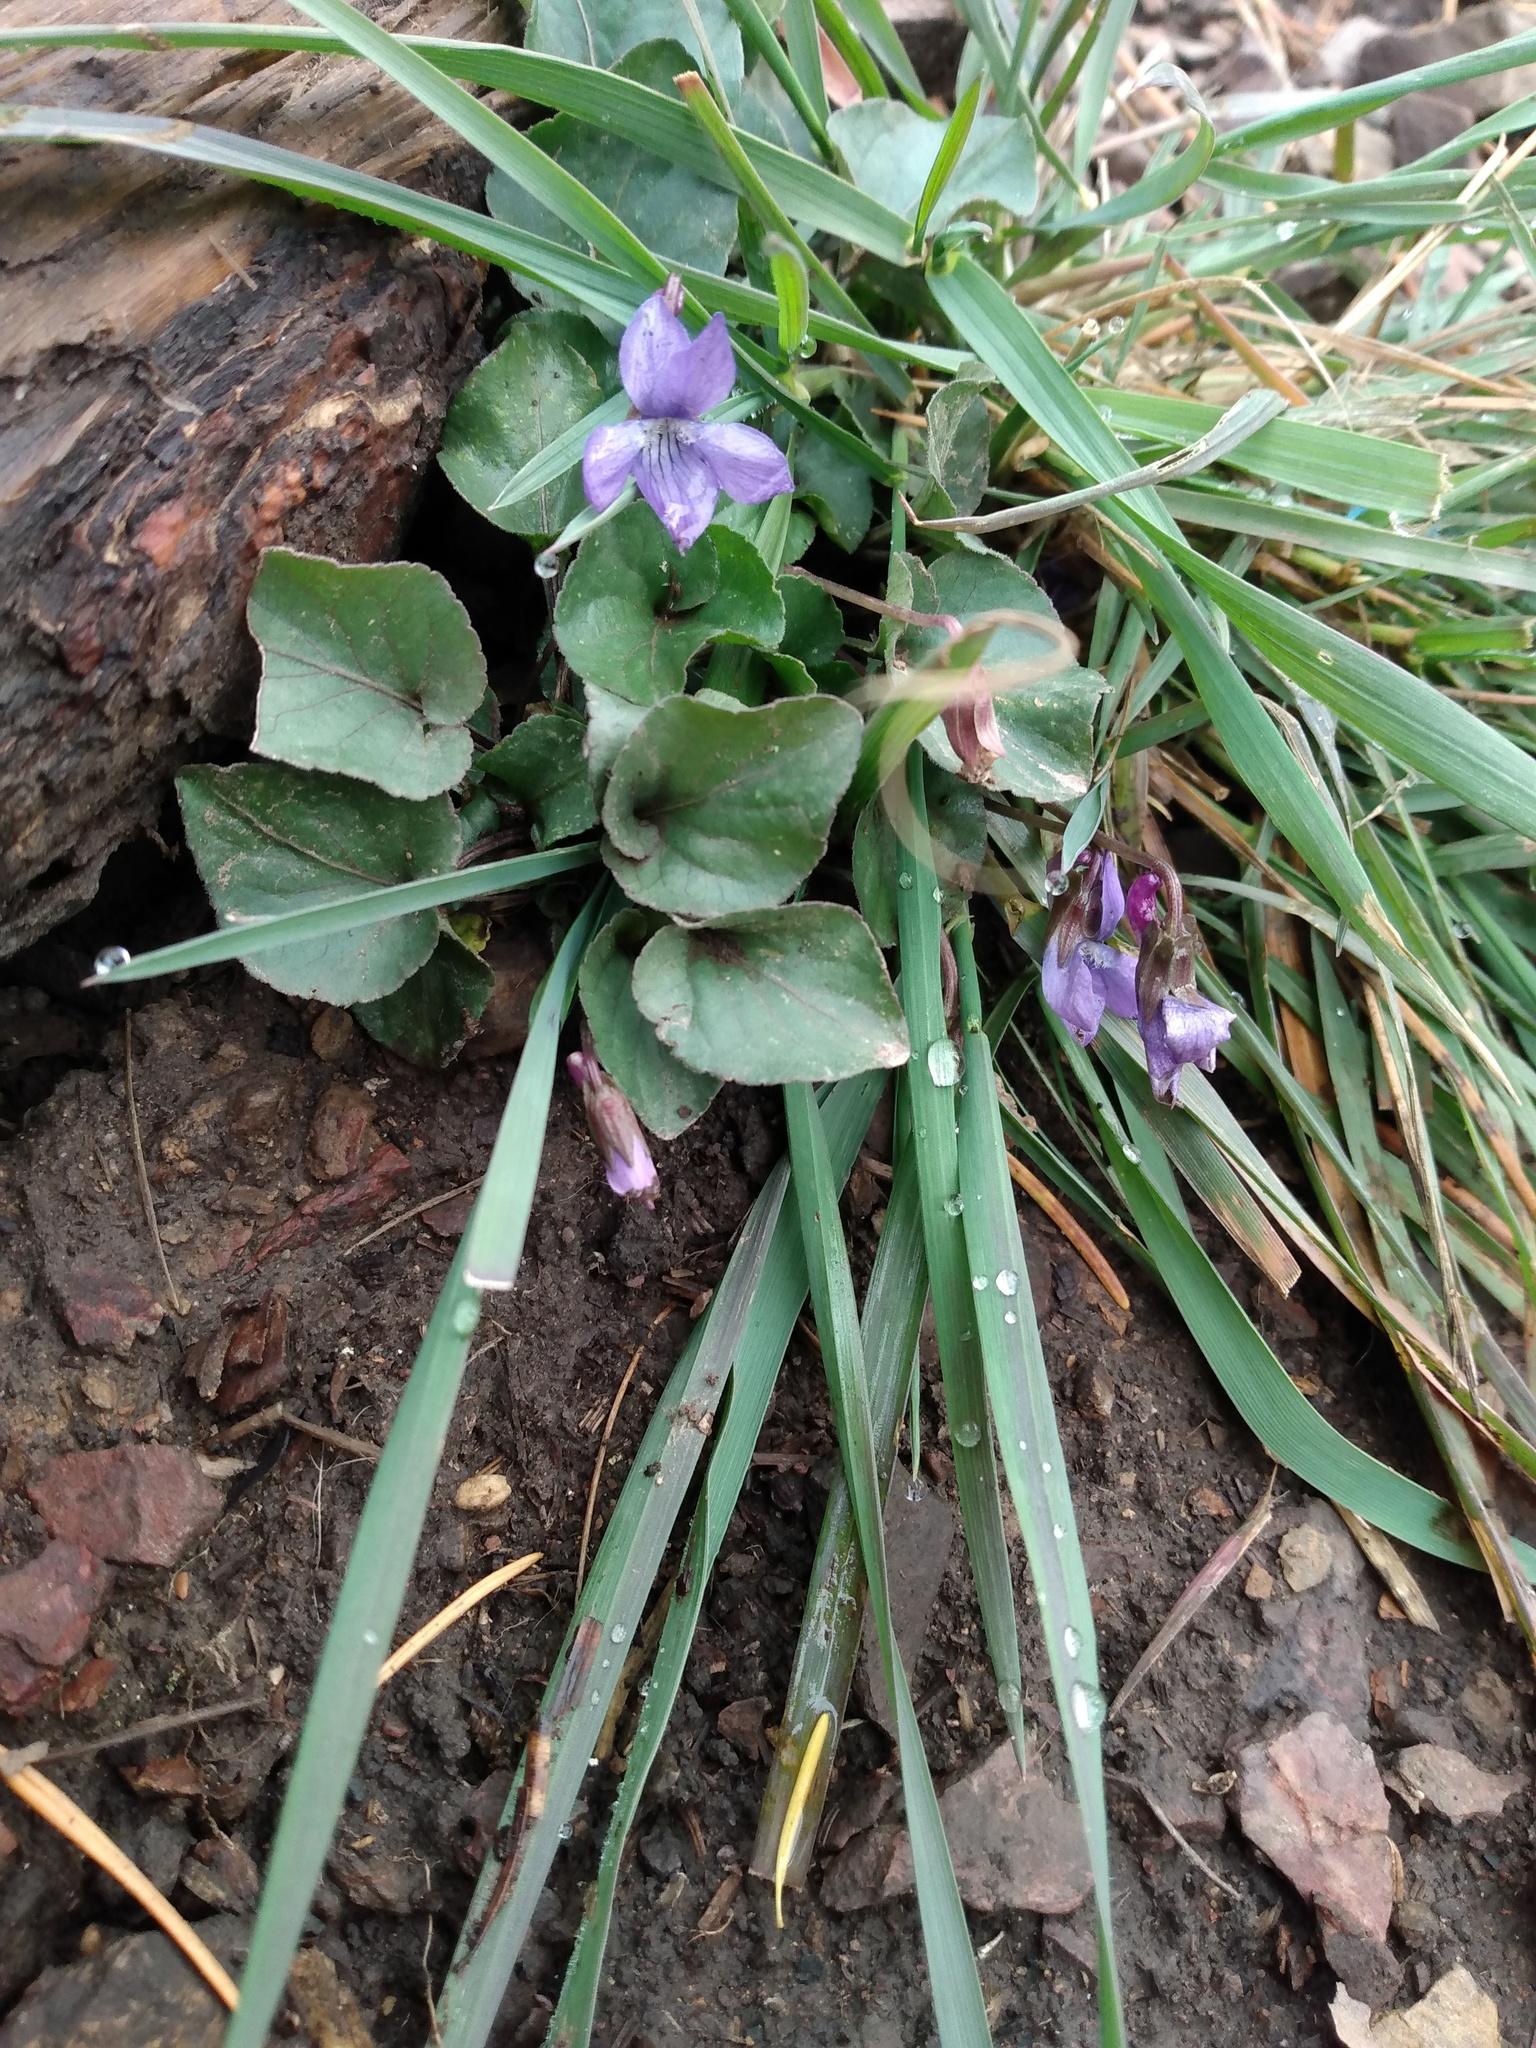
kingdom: Plantae
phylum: Tracheophyta
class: Magnoliopsida
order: Malpighiales
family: Violaceae
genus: Viola
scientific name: Viola adunca
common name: Sand violet
